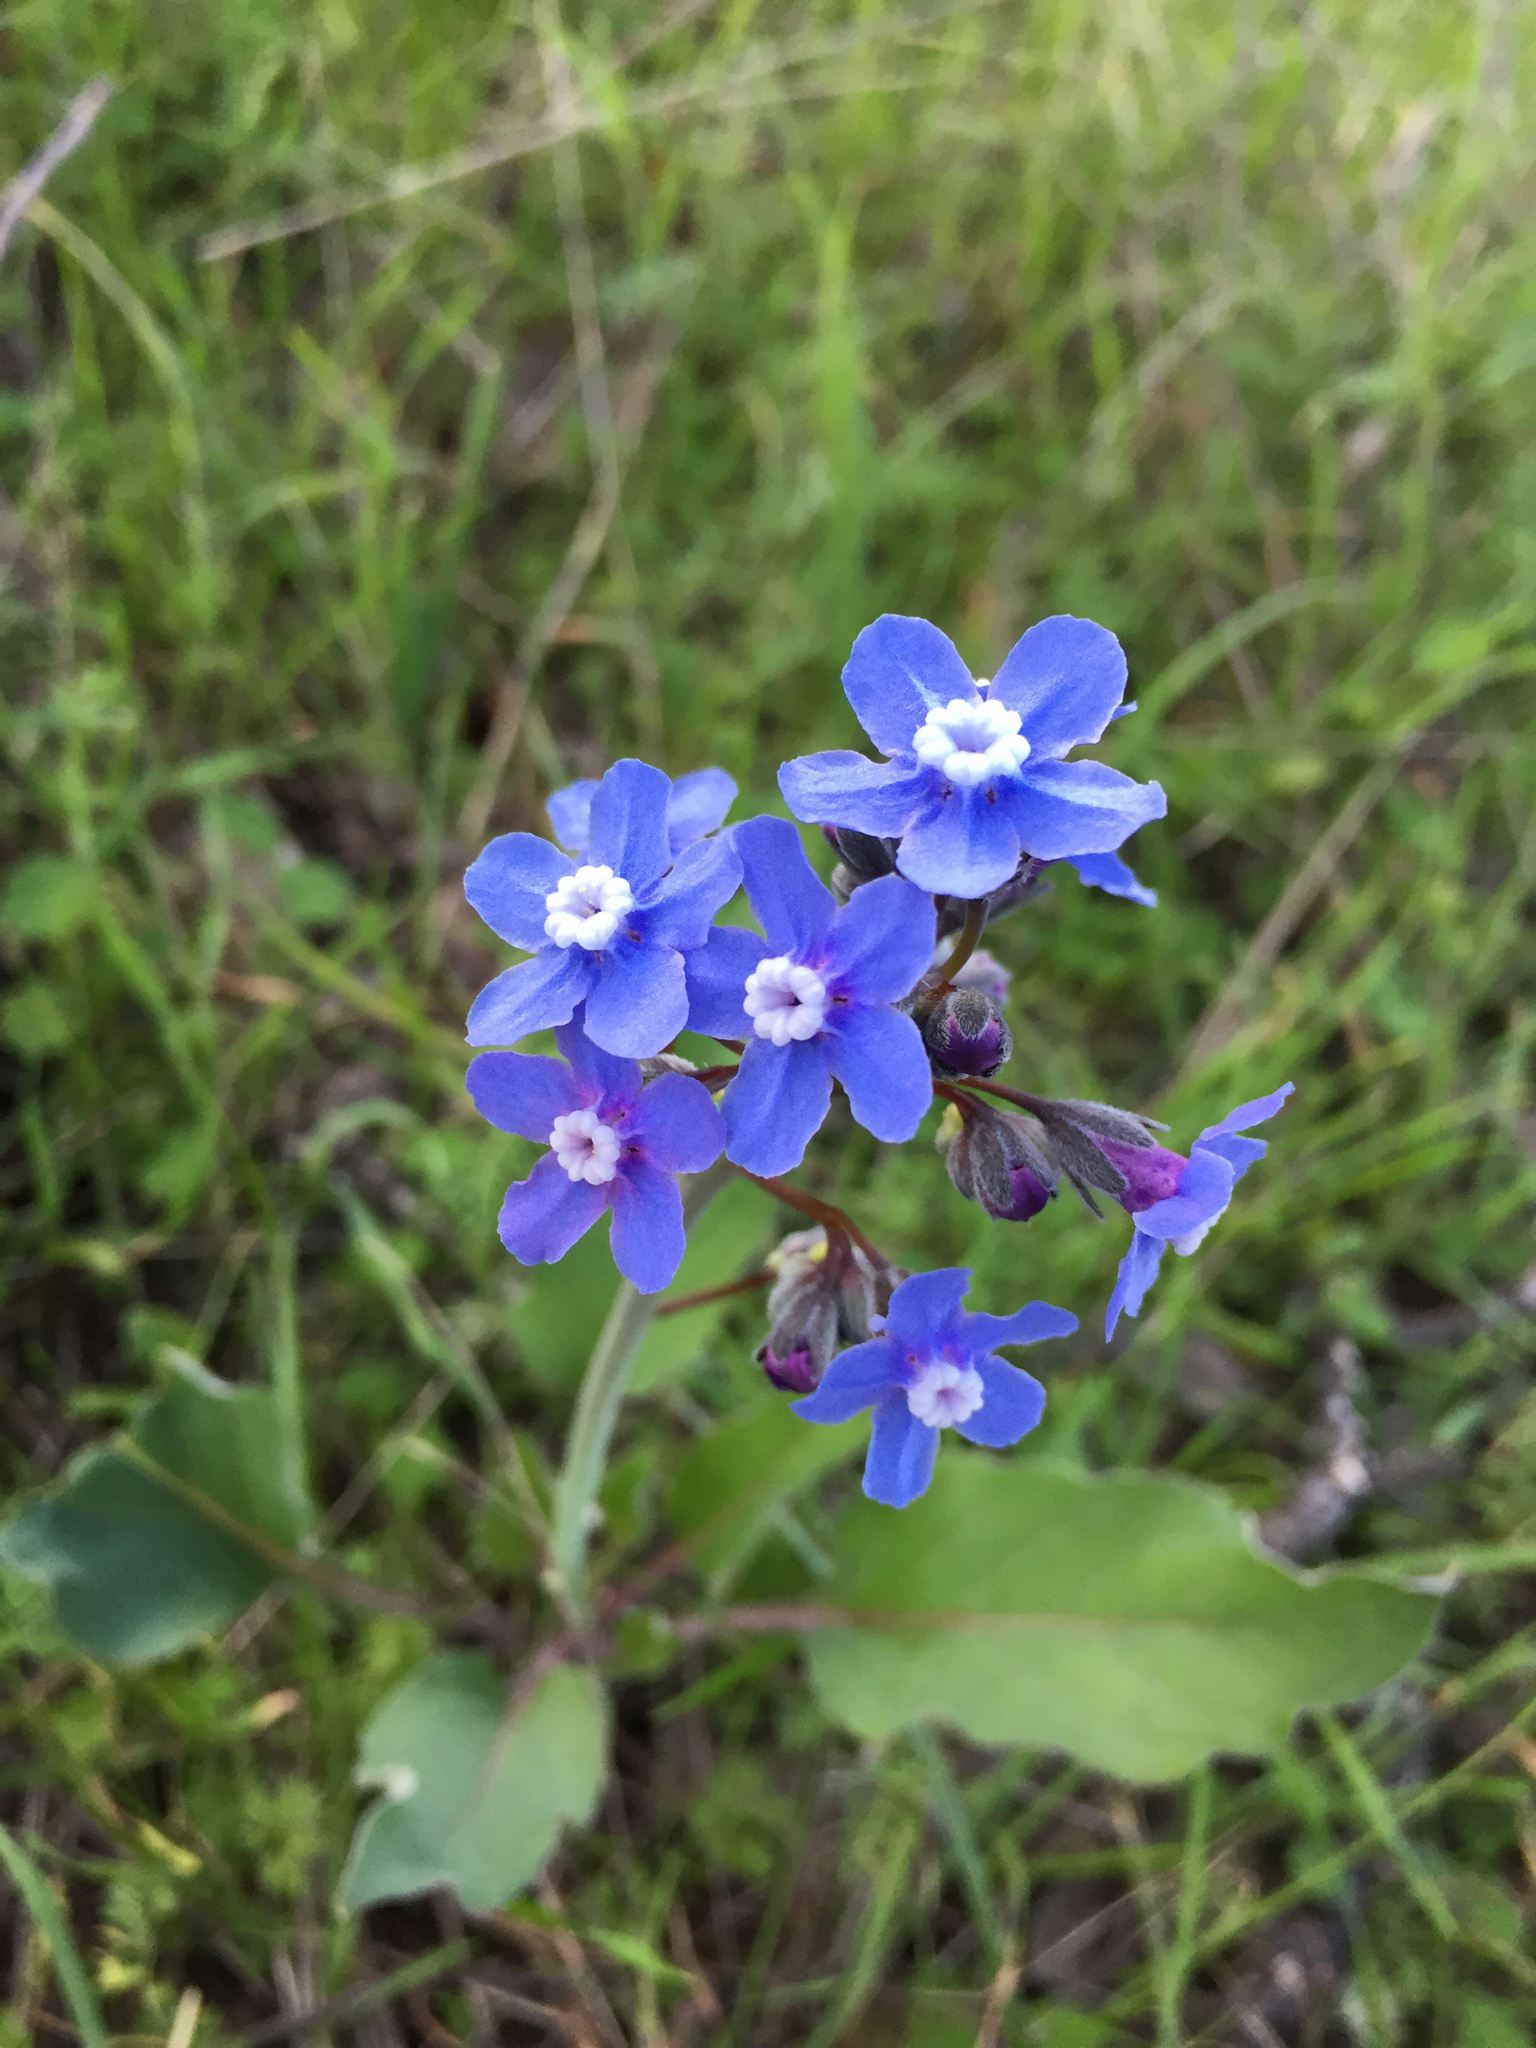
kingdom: Plantae
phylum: Tracheophyta
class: Magnoliopsida
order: Boraginales
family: Boraginaceae
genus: Adelinia
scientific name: Adelinia grande
